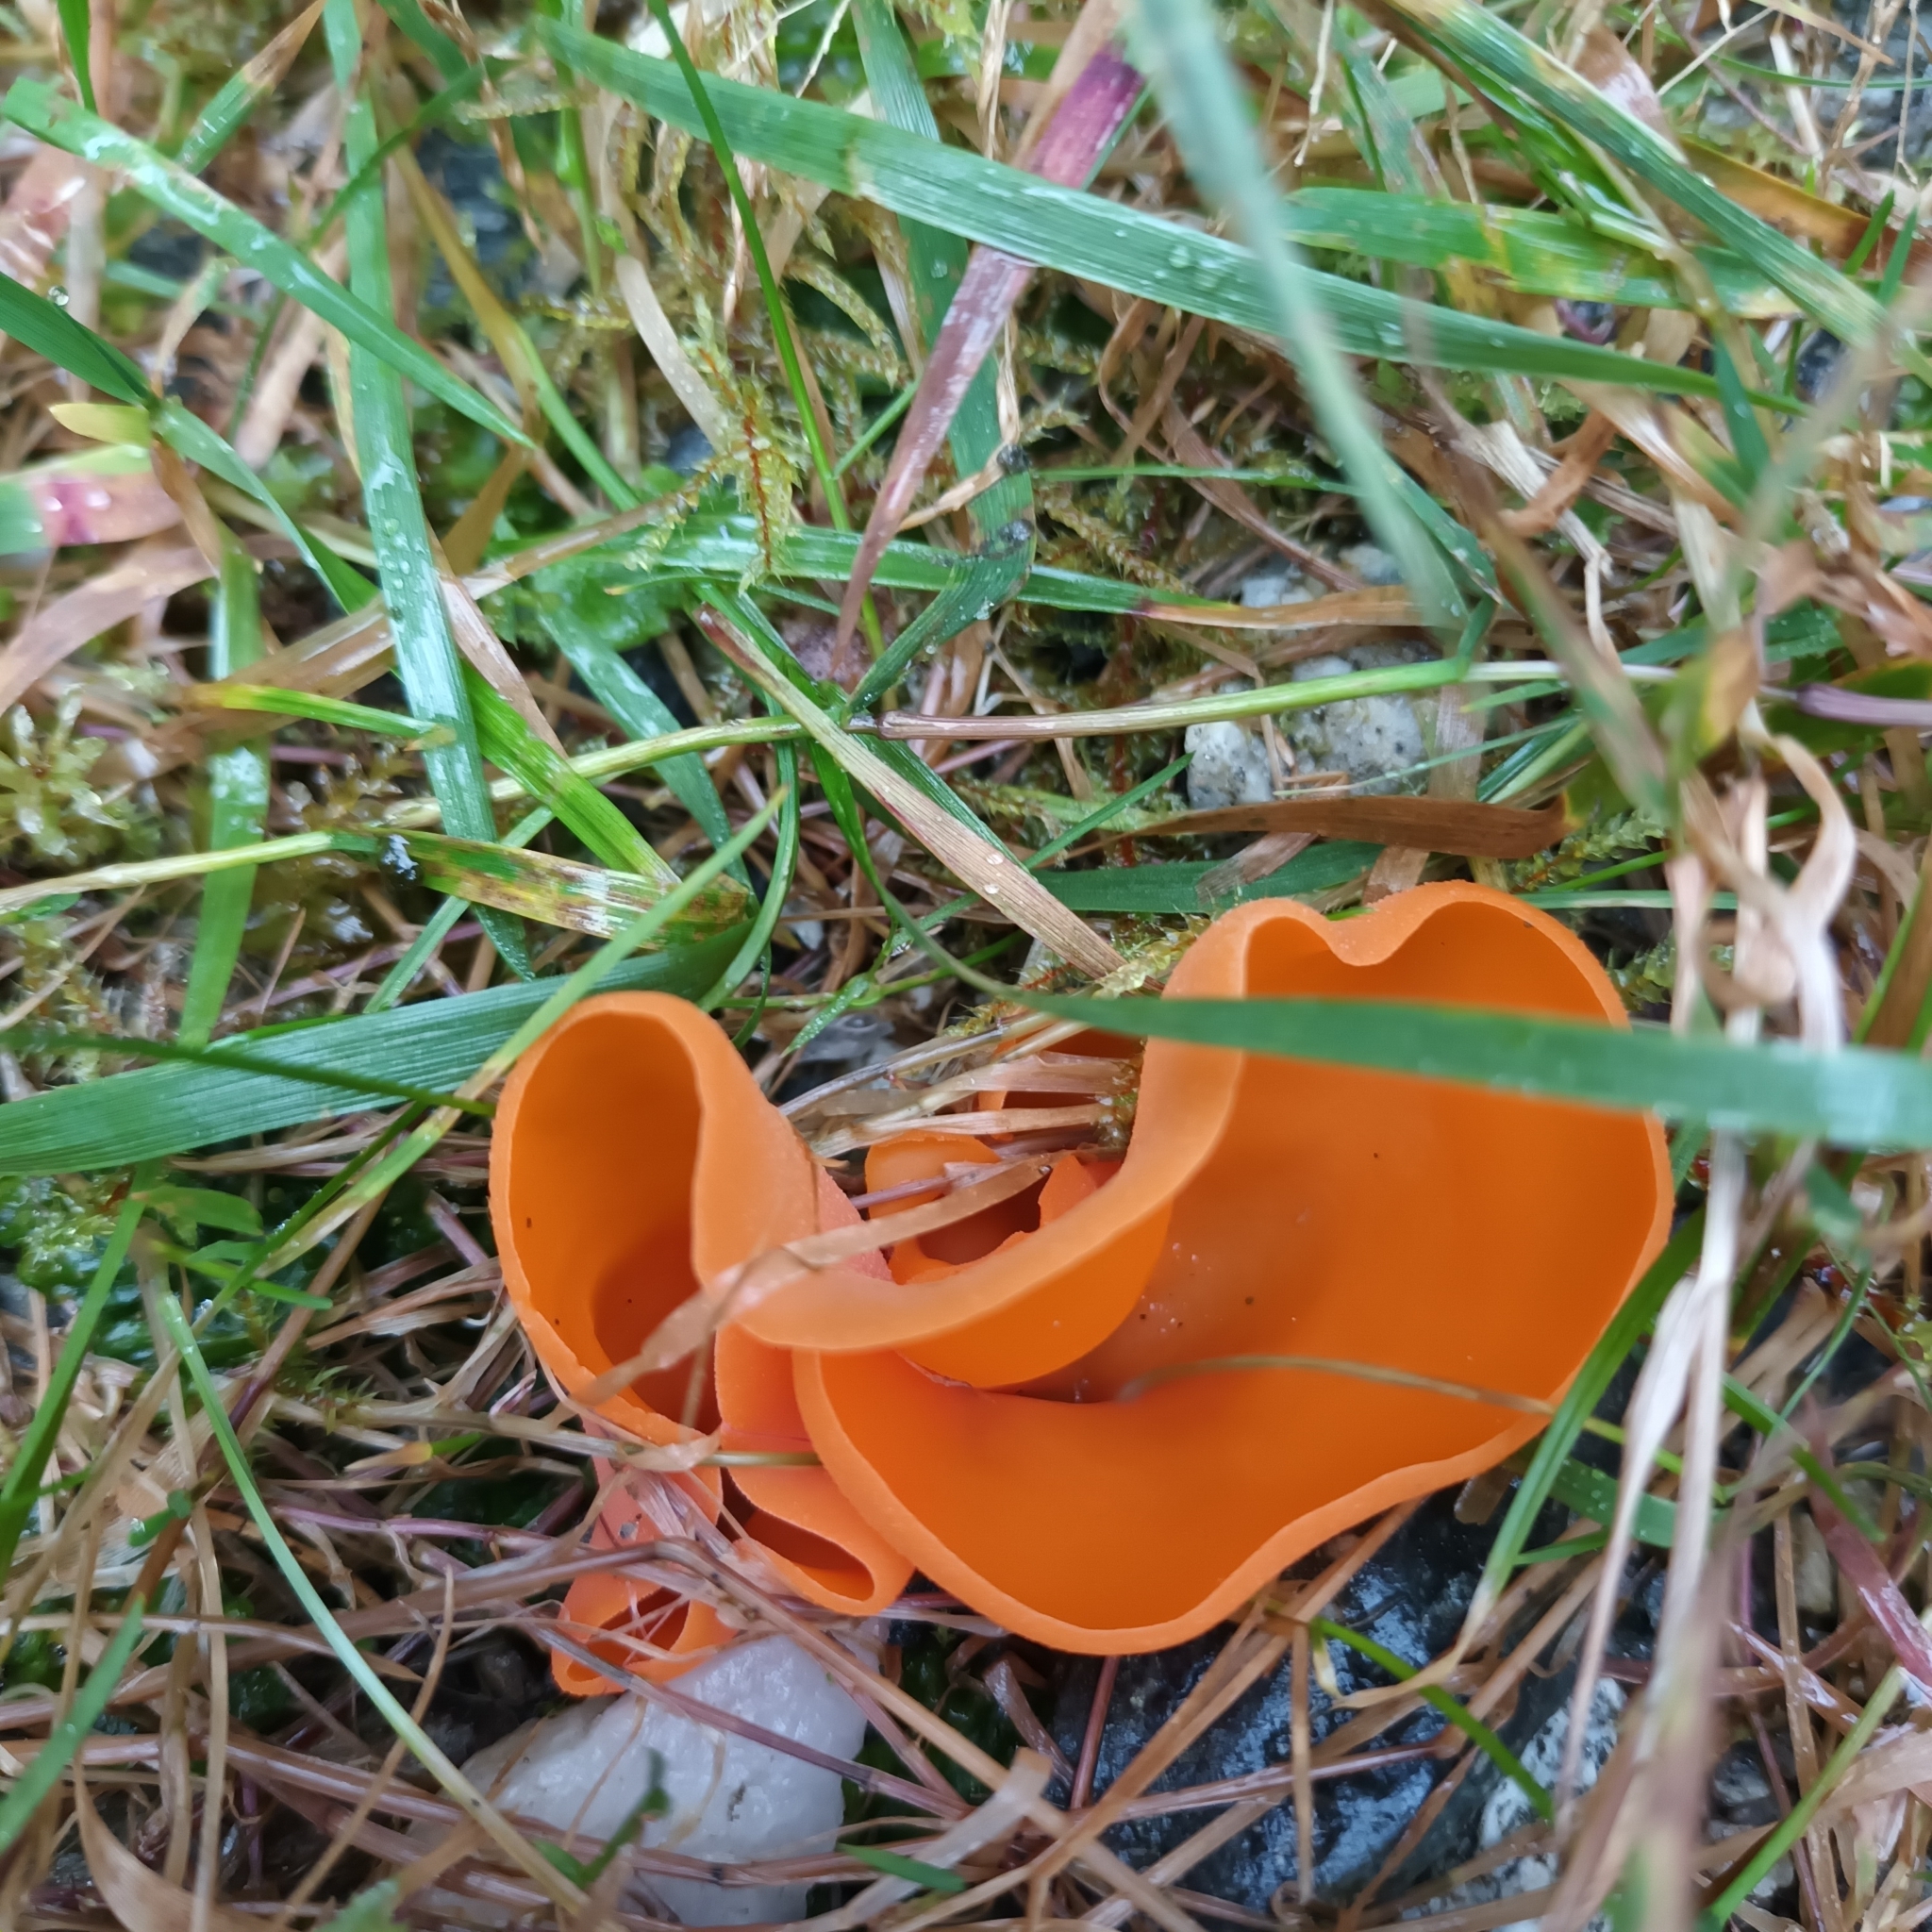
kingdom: Fungi
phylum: Ascomycota
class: Pezizomycetes
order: Pezizales
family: Pyronemataceae
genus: Aleuria
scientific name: Aleuria aurantia
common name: Orange peel fungus
